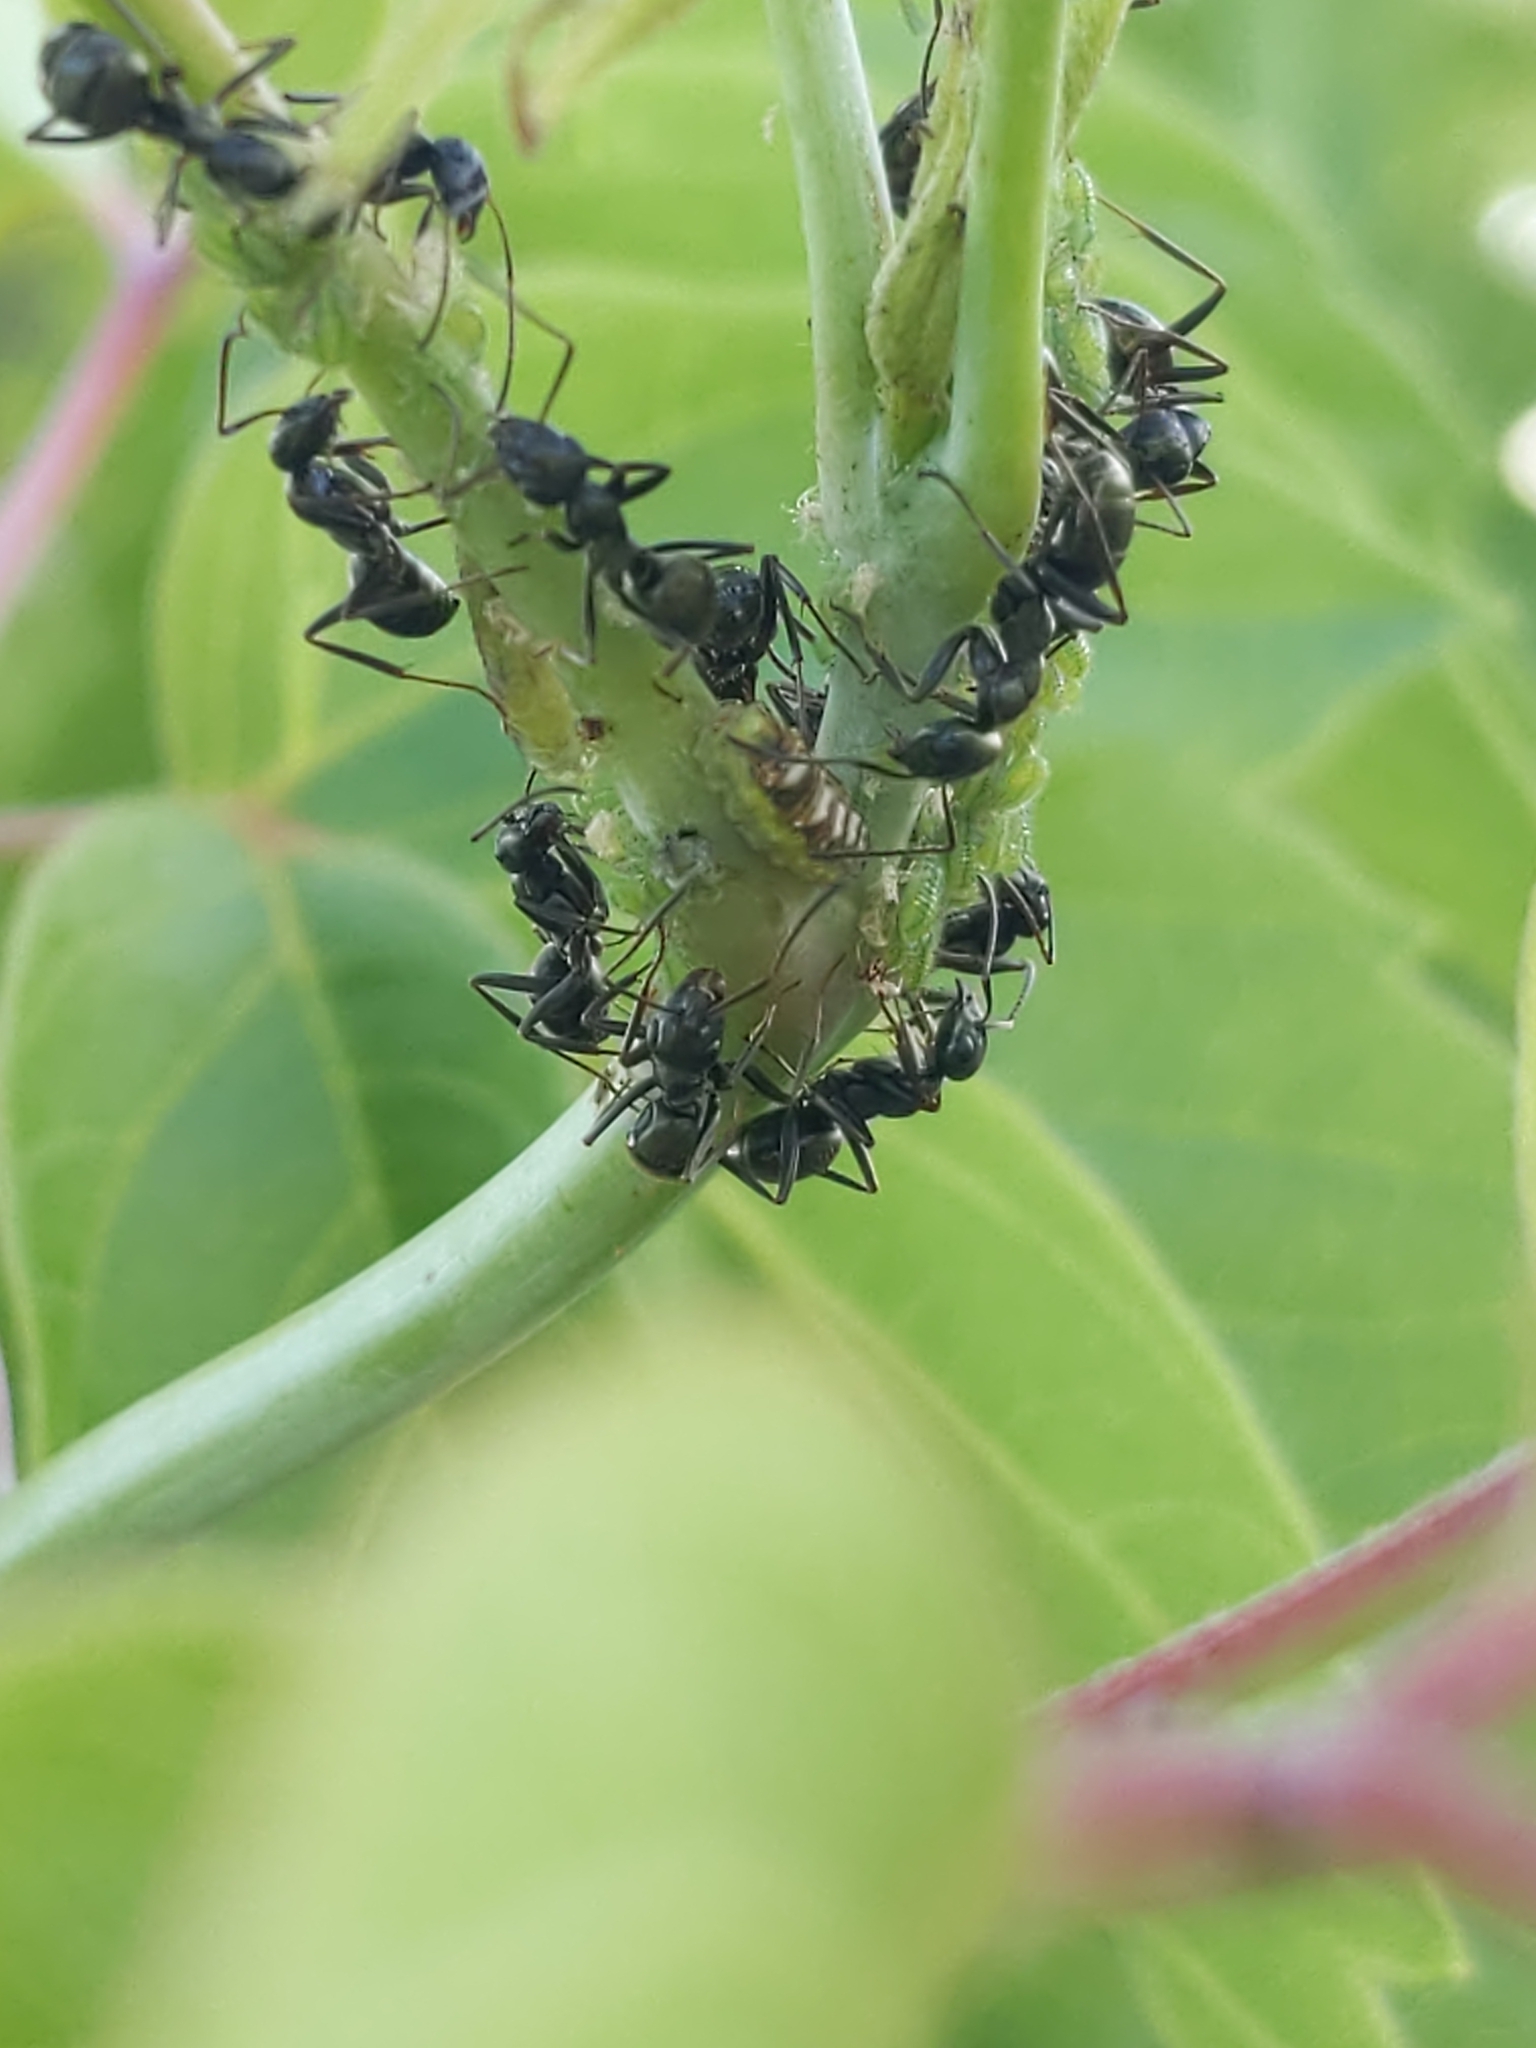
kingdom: Animalia
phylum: Arthropoda
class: Insecta
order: Hymenoptera
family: Formicidae
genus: Formica
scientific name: Formica
